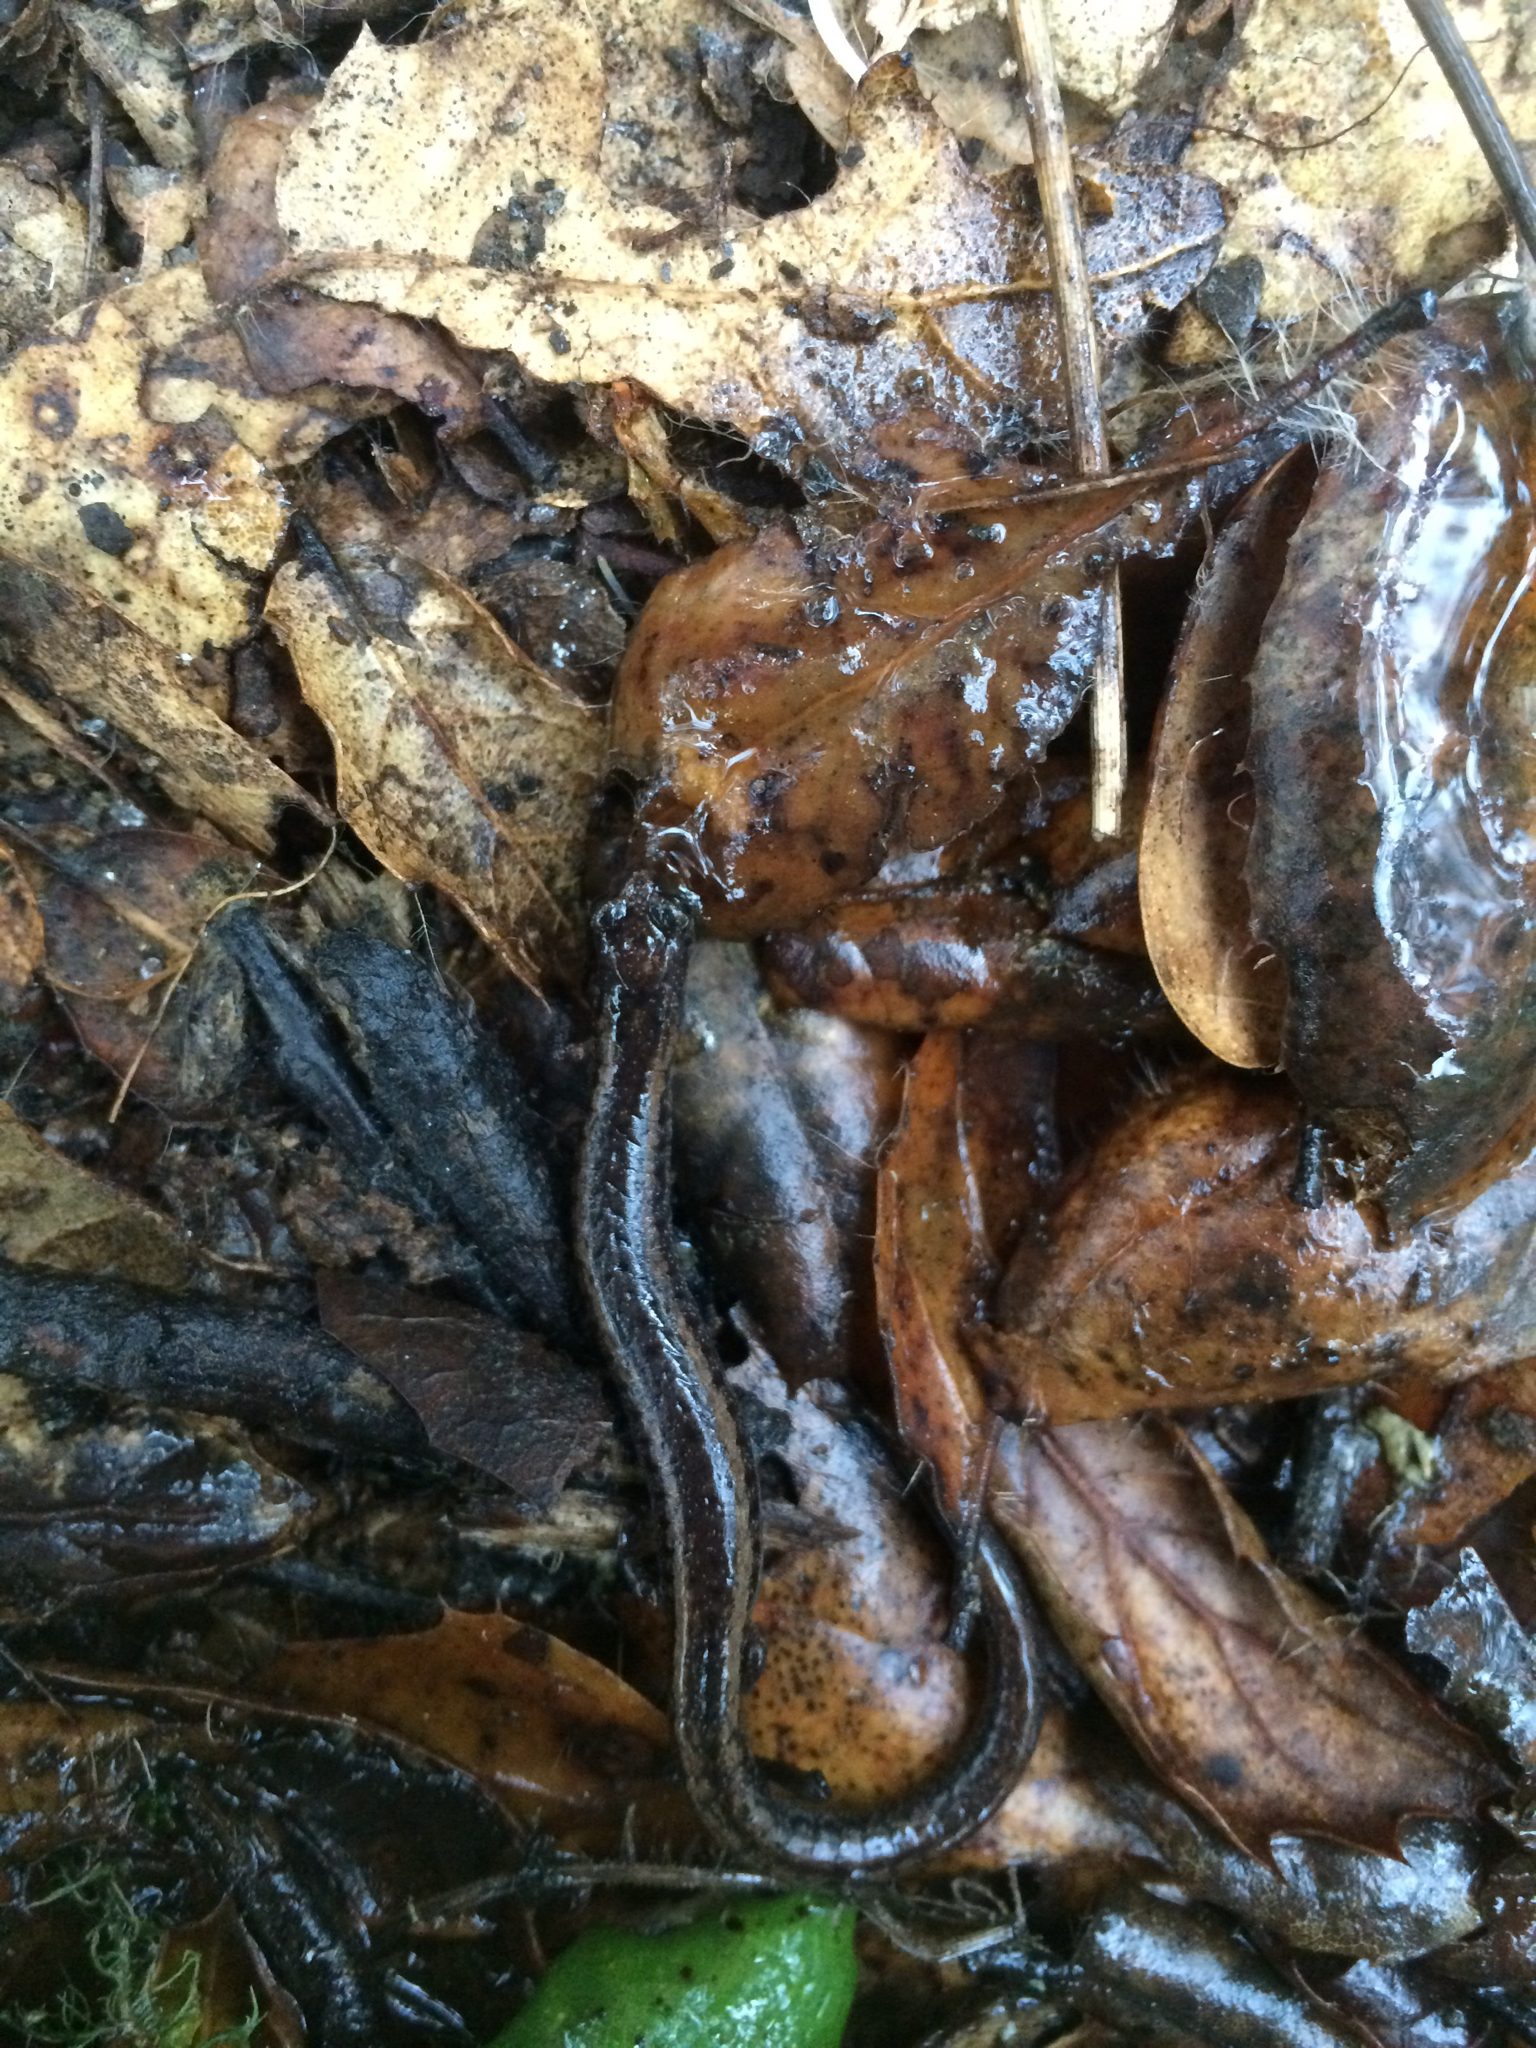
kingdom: Animalia
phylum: Chordata
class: Amphibia
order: Caudata
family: Plethodontidae
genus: Batrachoseps
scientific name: Batrachoseps attenuatus
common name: California slender salamander
